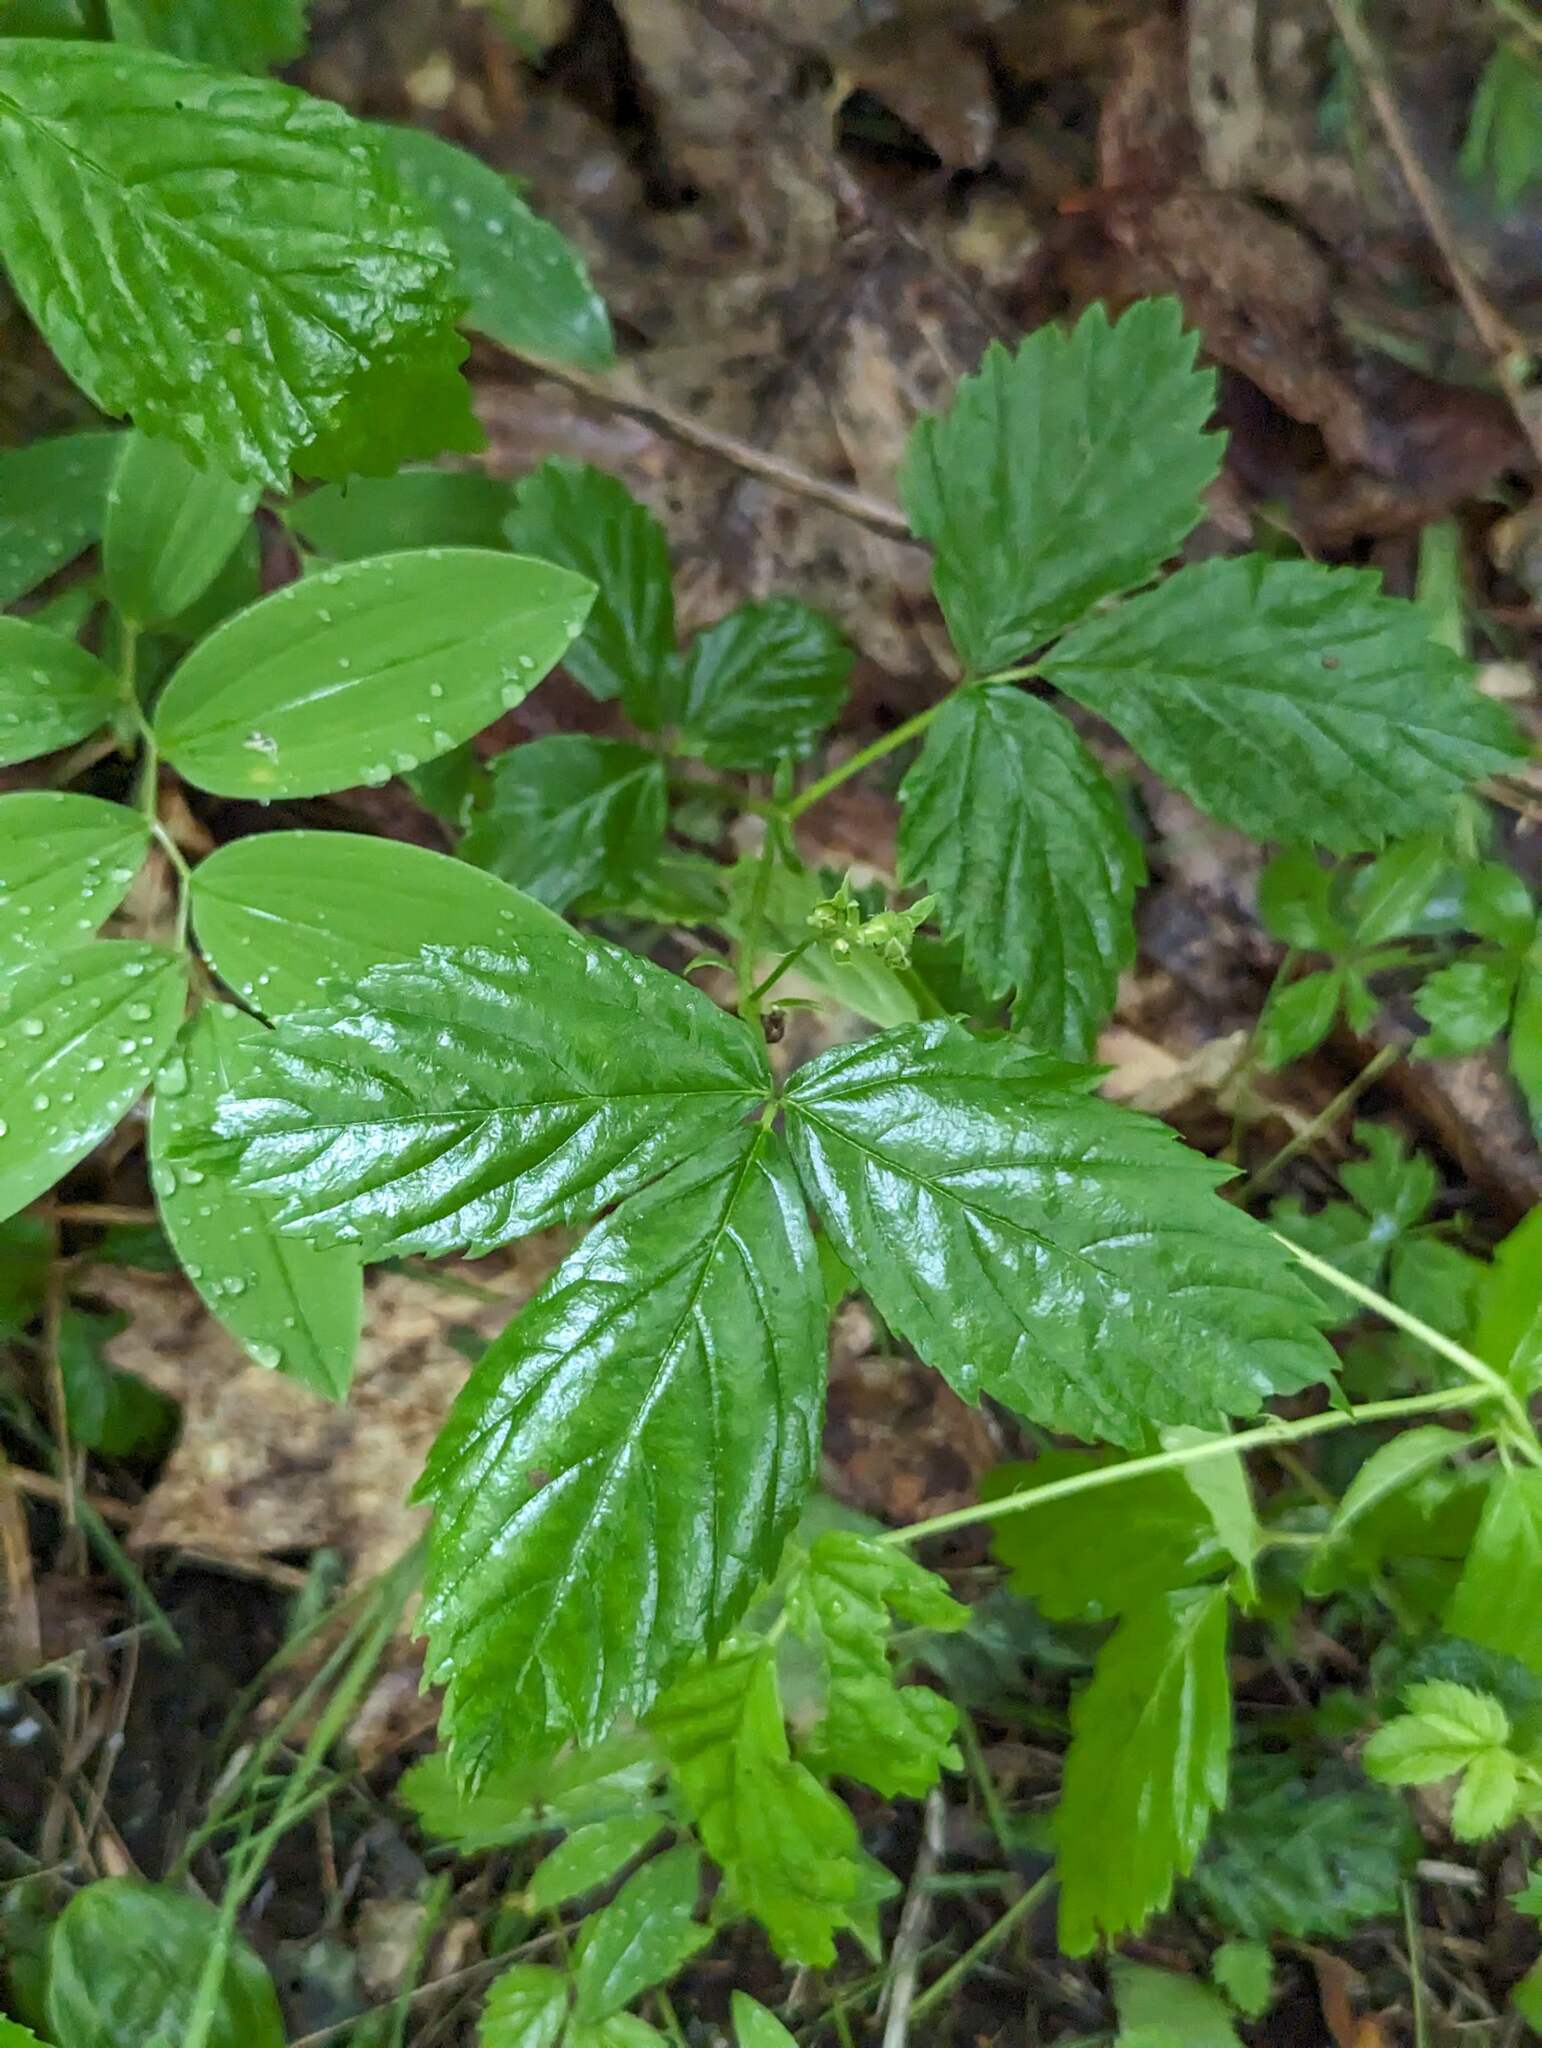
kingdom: Plantae
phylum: Tracheophyta
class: Magnoliopsida
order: Rosales
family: Rosaceae
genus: Rubus
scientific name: Rubus hispidus
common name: Running blackberry
